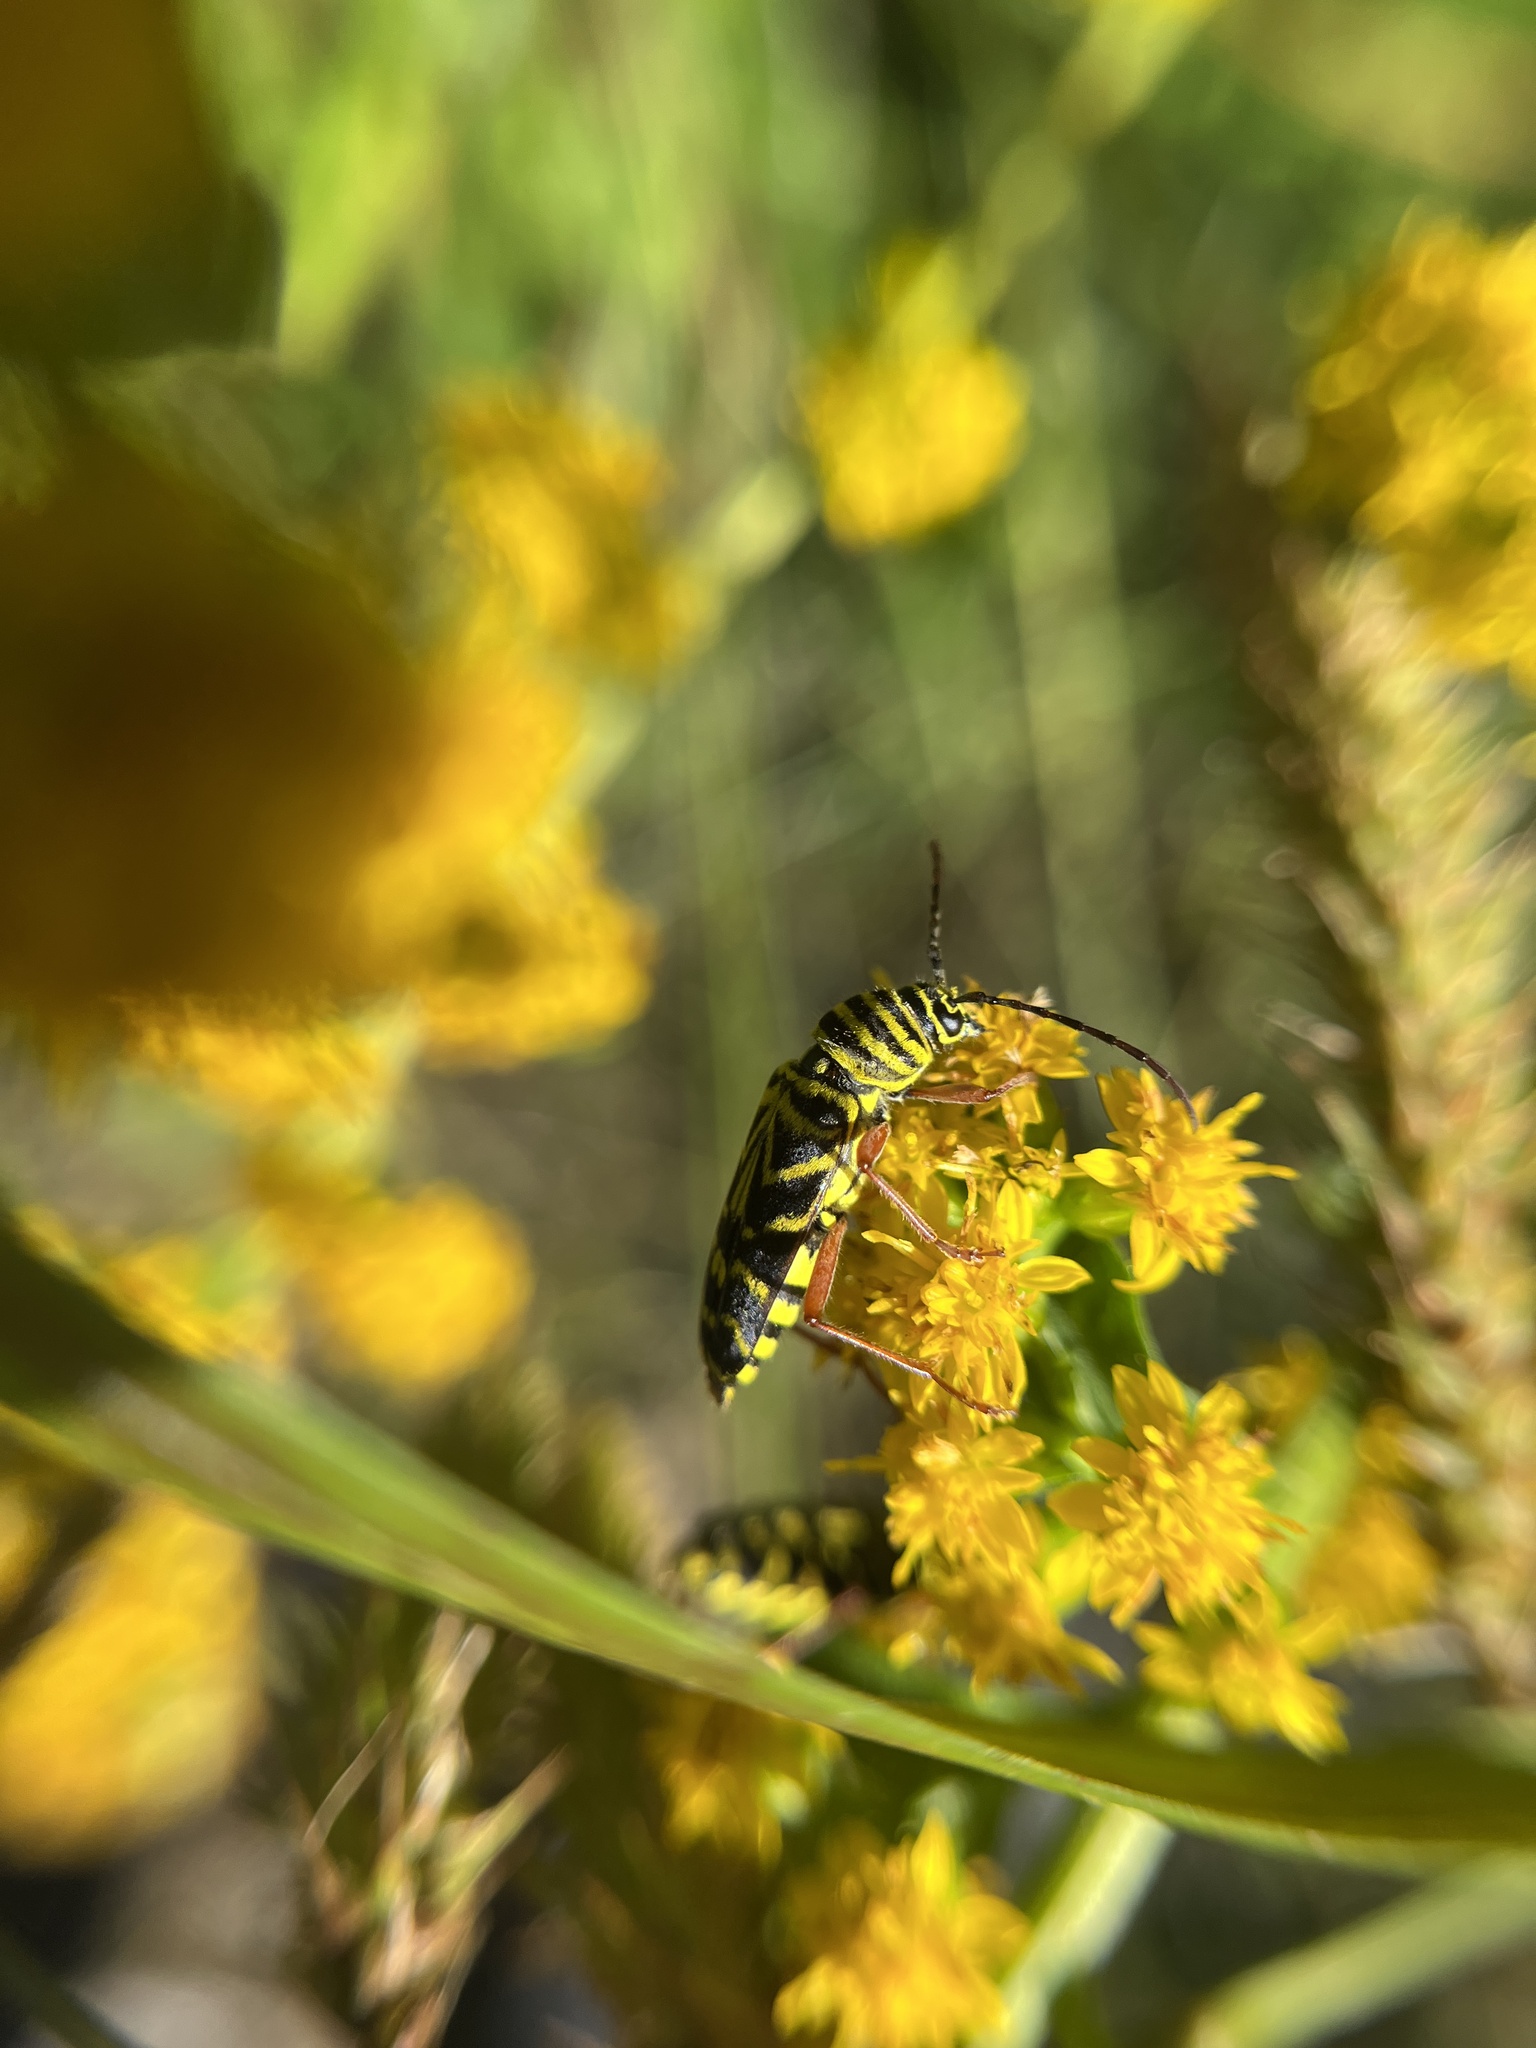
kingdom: Animalia
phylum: Arthropoda
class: Insecta
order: Coleoptera
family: Cerambycidae
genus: Megacyllene
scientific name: Megacyllene robiniae
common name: Locust borer
